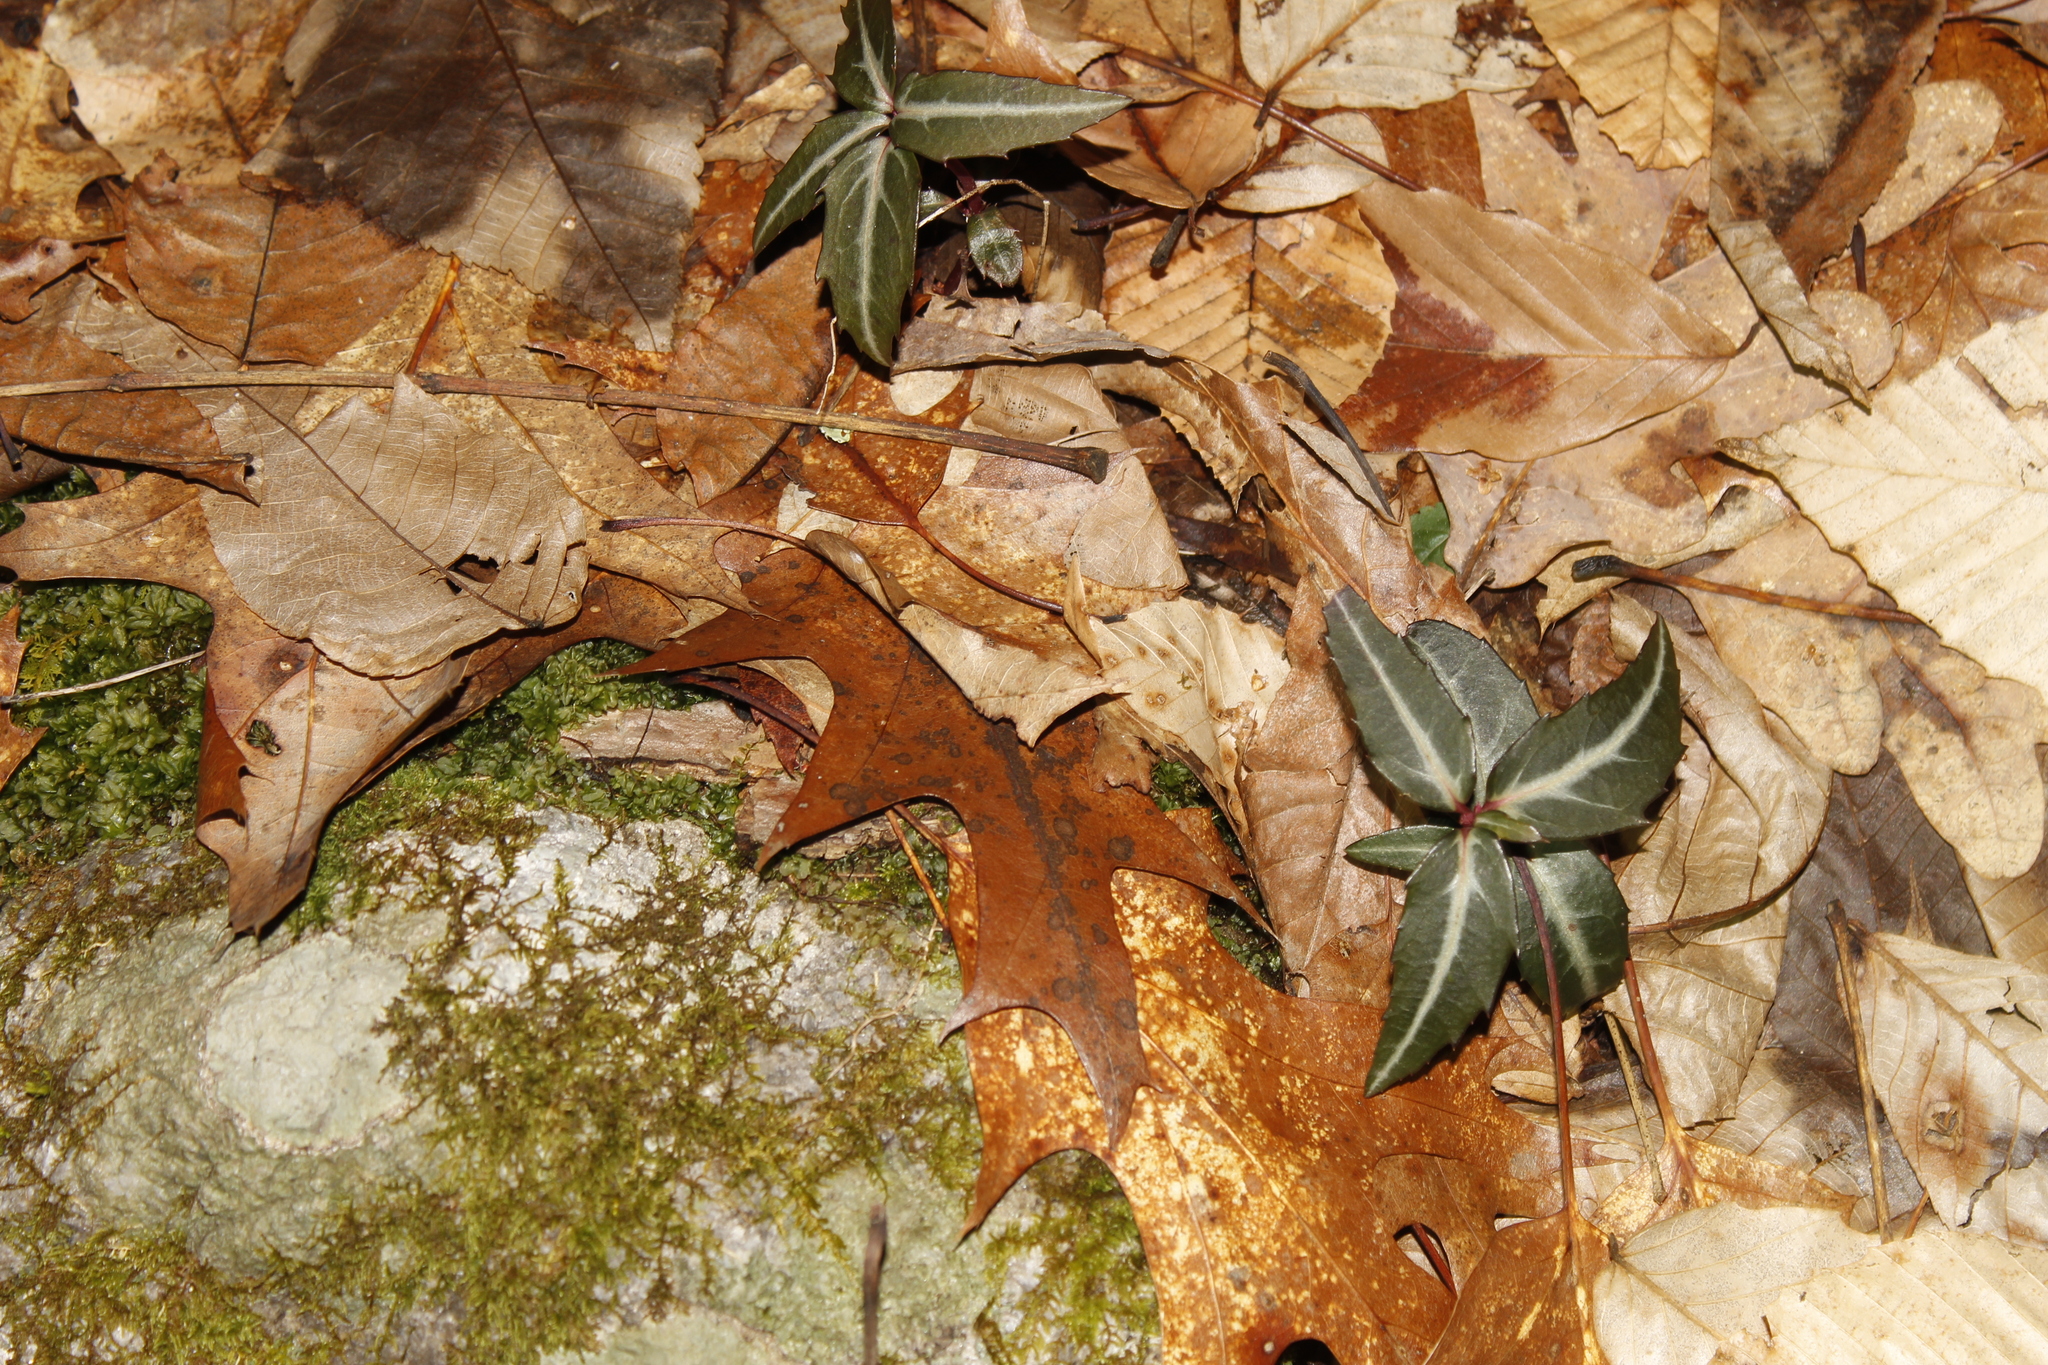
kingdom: Plantae
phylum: Tracheophyta
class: Magnoliopsida
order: Ericales
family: Ericaceae
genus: Chimaphila
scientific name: Chimaphila maculata
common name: Spotted pipsissewa
